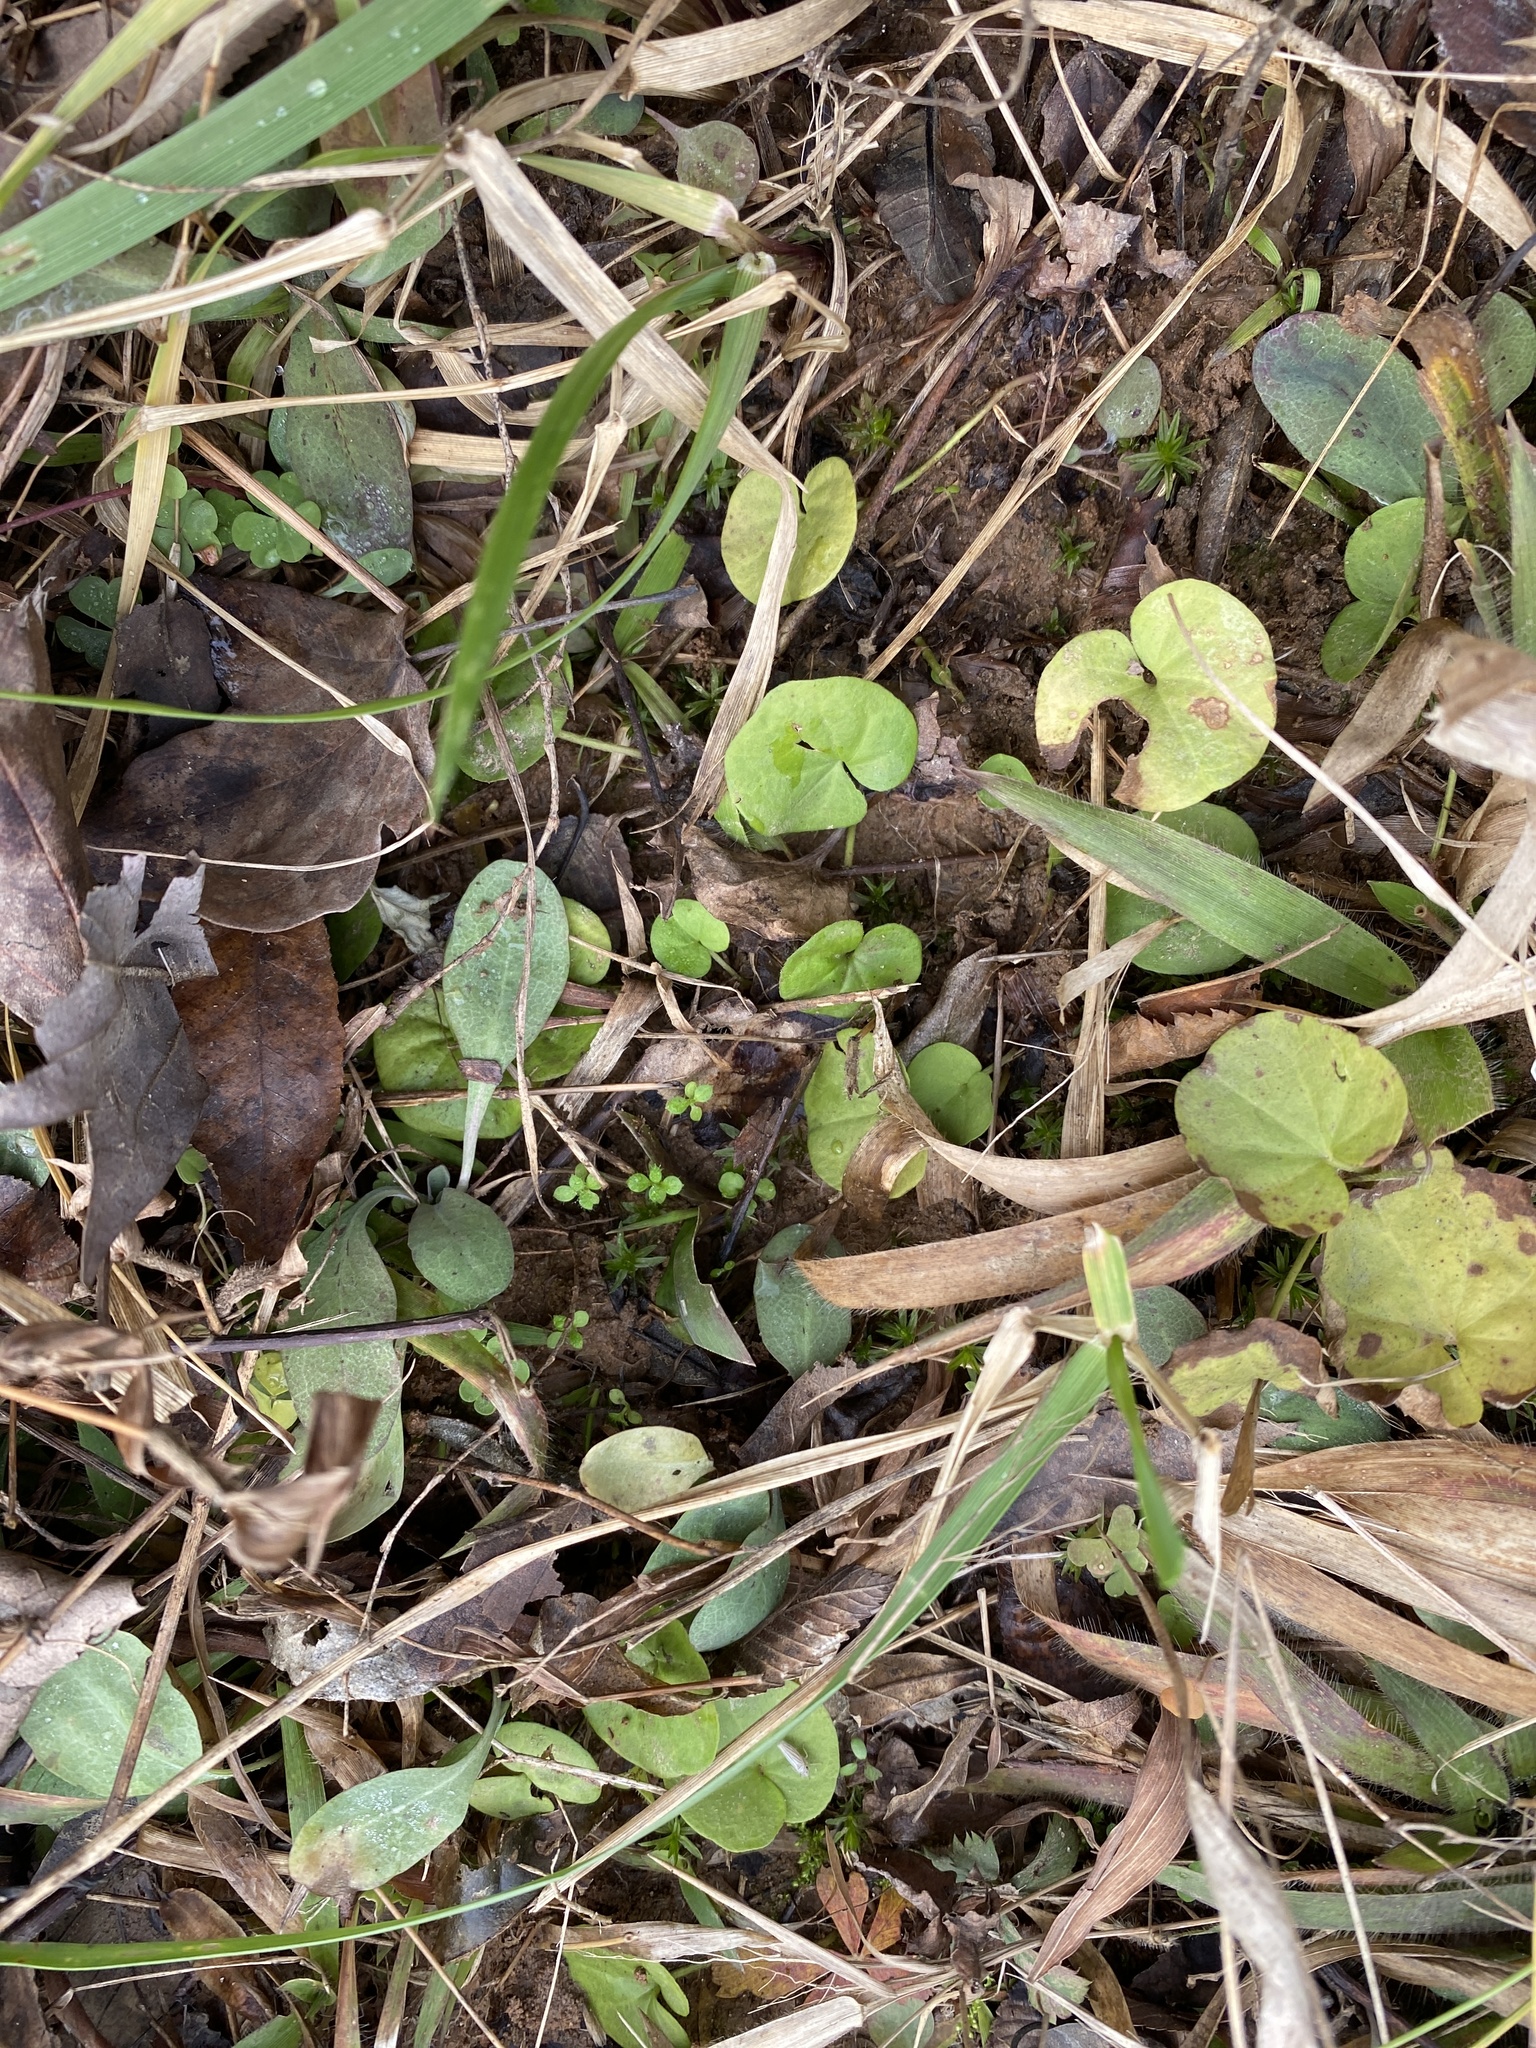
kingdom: Plantae
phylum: Tracheophyta
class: Magnoliopsida
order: Solanales
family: Convolvulaceae
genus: Dichondra
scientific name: Dichondra carolinensis
